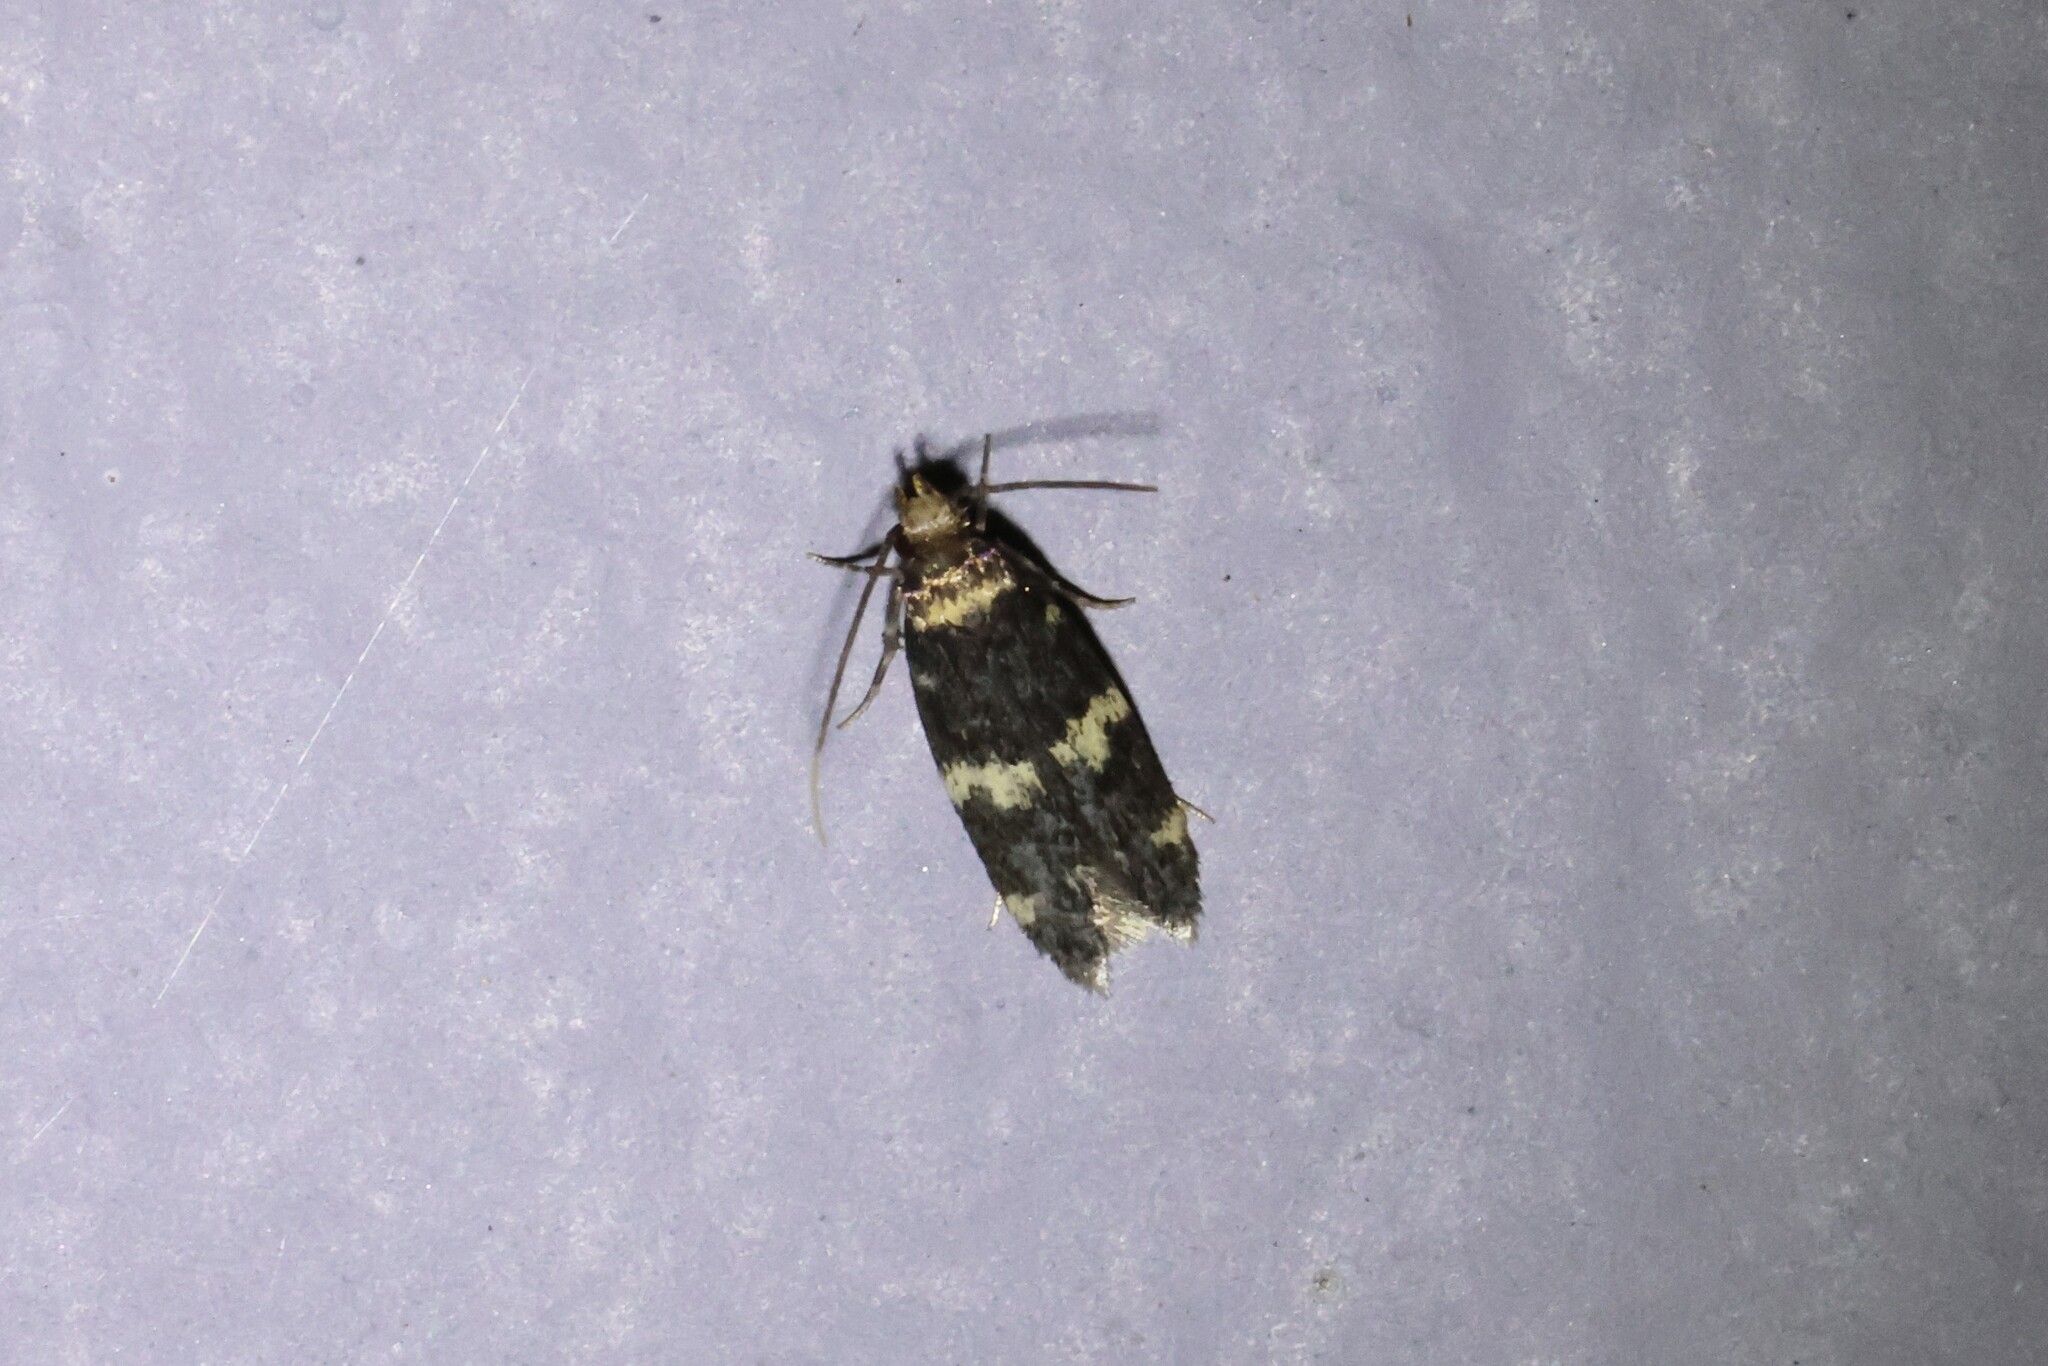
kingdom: Animalia
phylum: Arthropoda
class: Insecta
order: Lepidoptera
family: Autostichidae
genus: Oegoconia
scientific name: Oegoconia quadripuncta
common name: Four-spotted obscure
